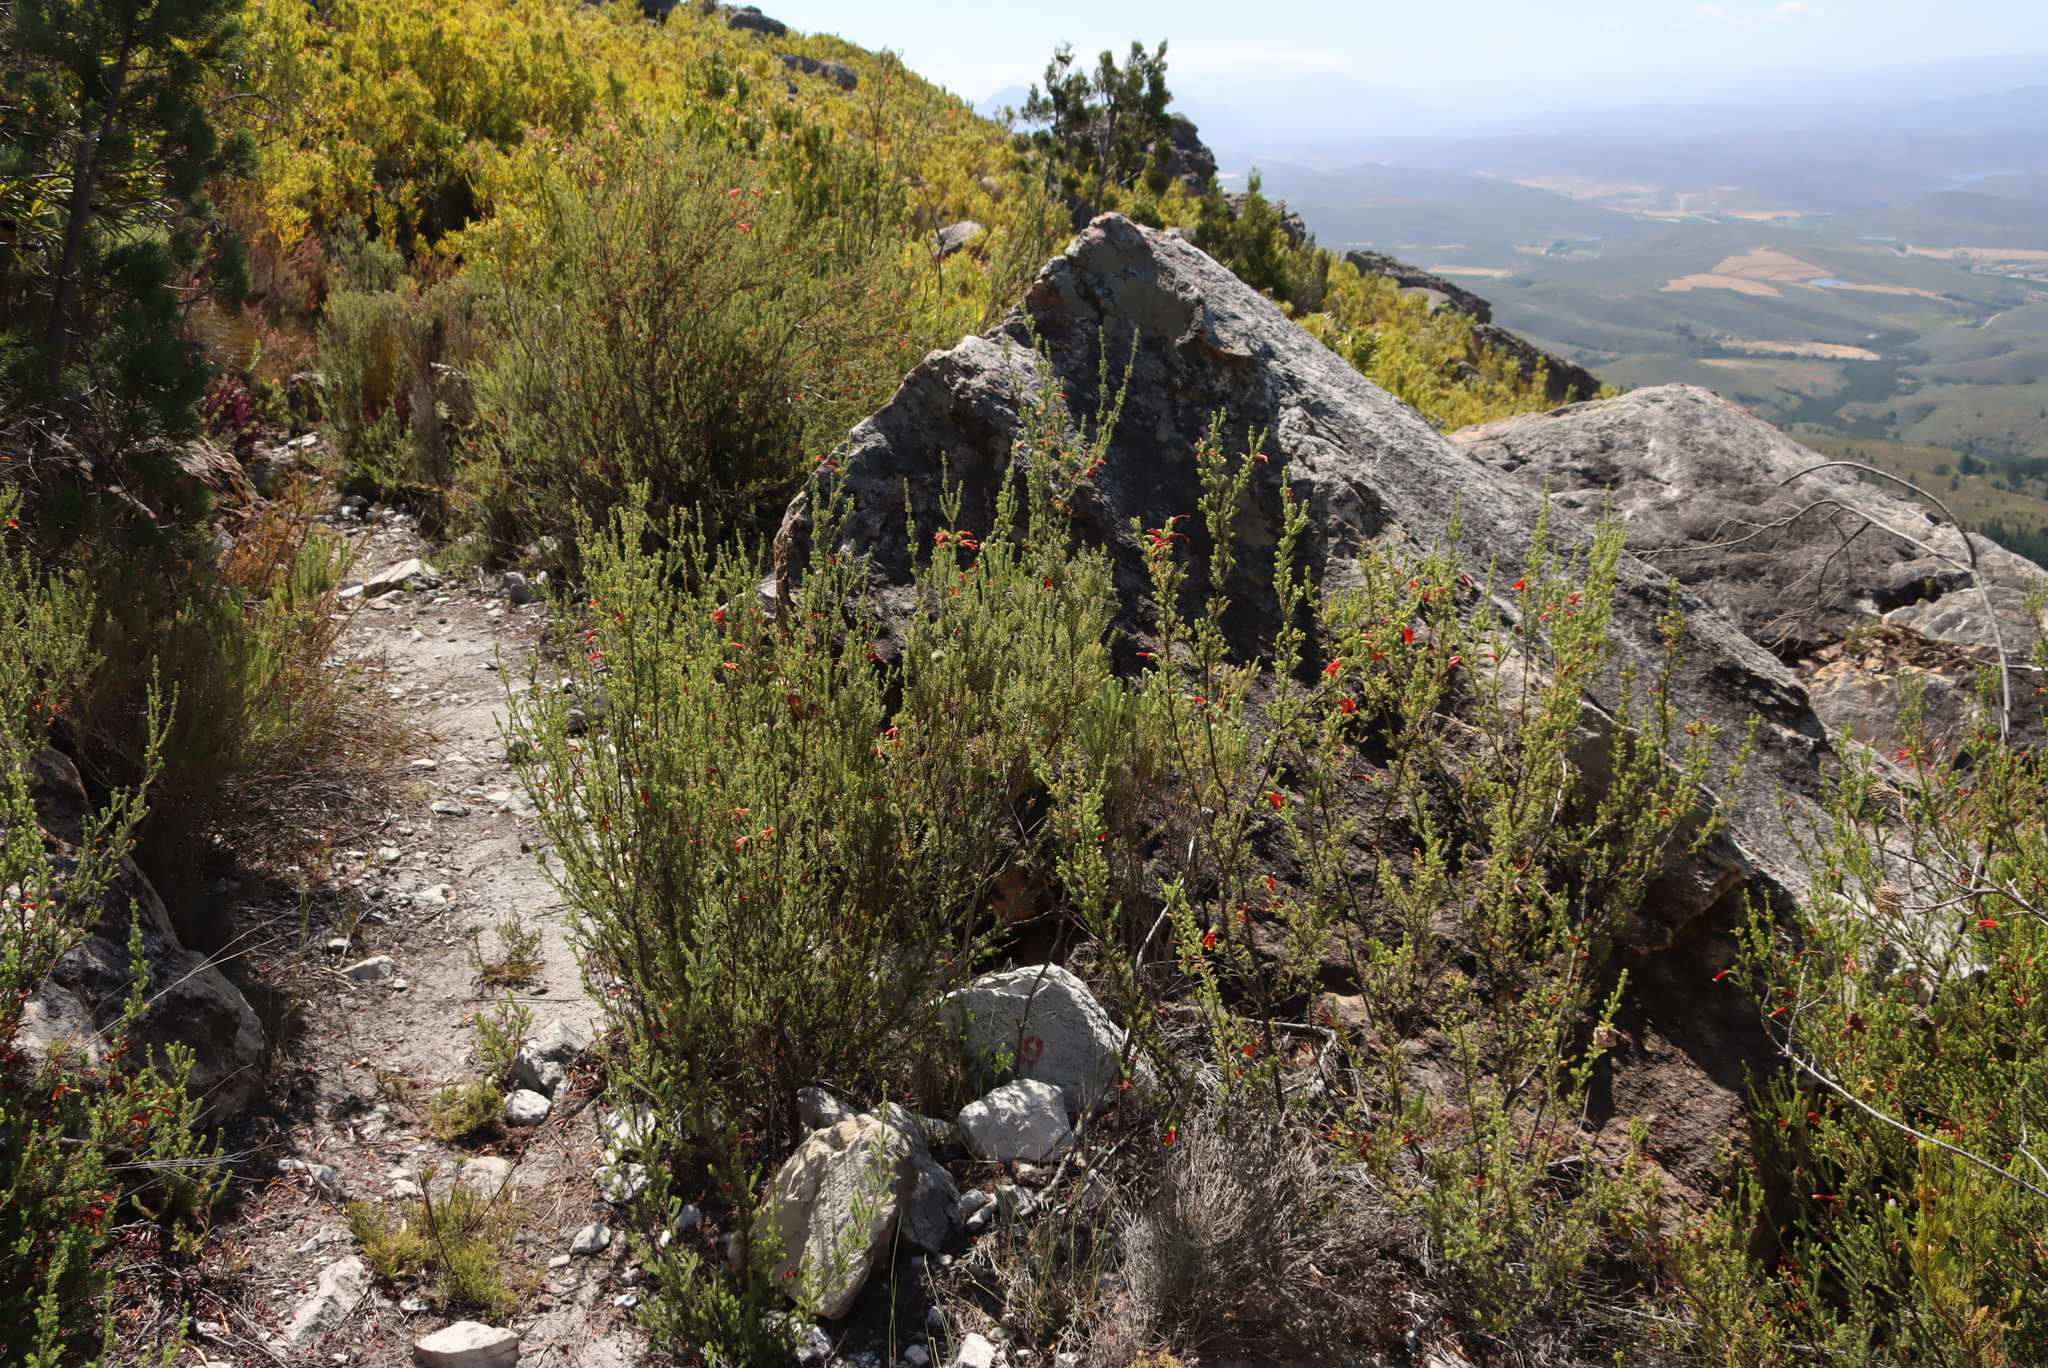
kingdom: Plantae
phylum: Tracheophyta
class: Magnoliopsida
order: Ericales
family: Ericaceae
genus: Erica
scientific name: Erica discolor
